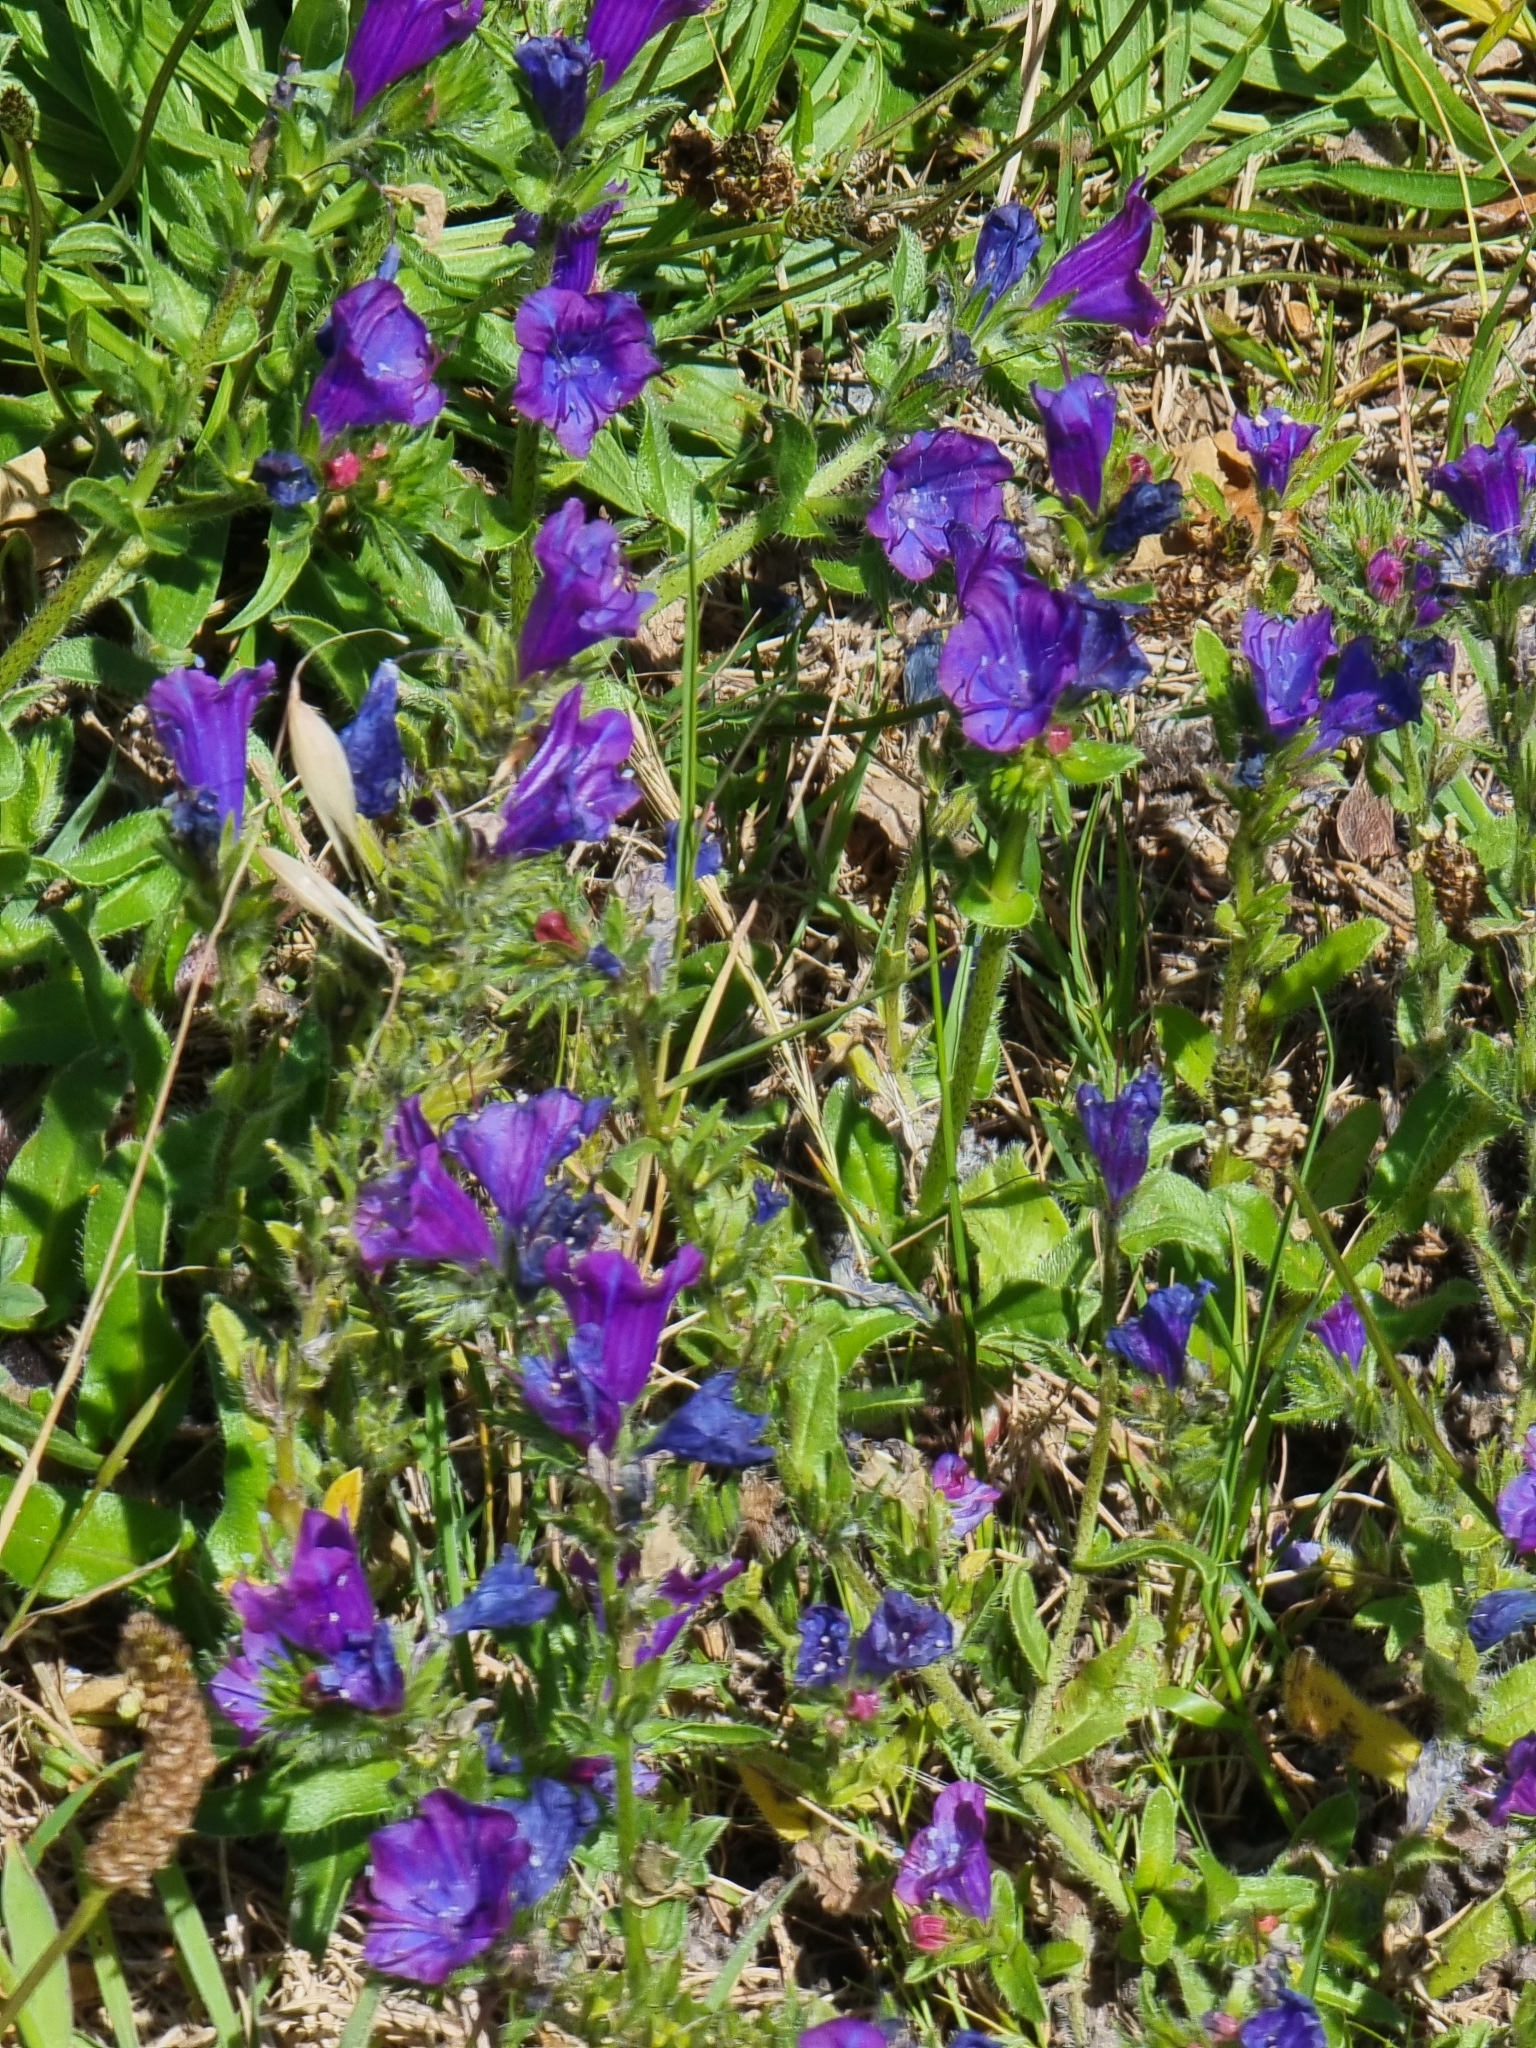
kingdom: Plantae
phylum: Tracheophyta
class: Magnoliopsida
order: Boraginales
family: Boraginaceae
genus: Echium
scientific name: Echium plantagineum
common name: Purple viper's-bugloss
